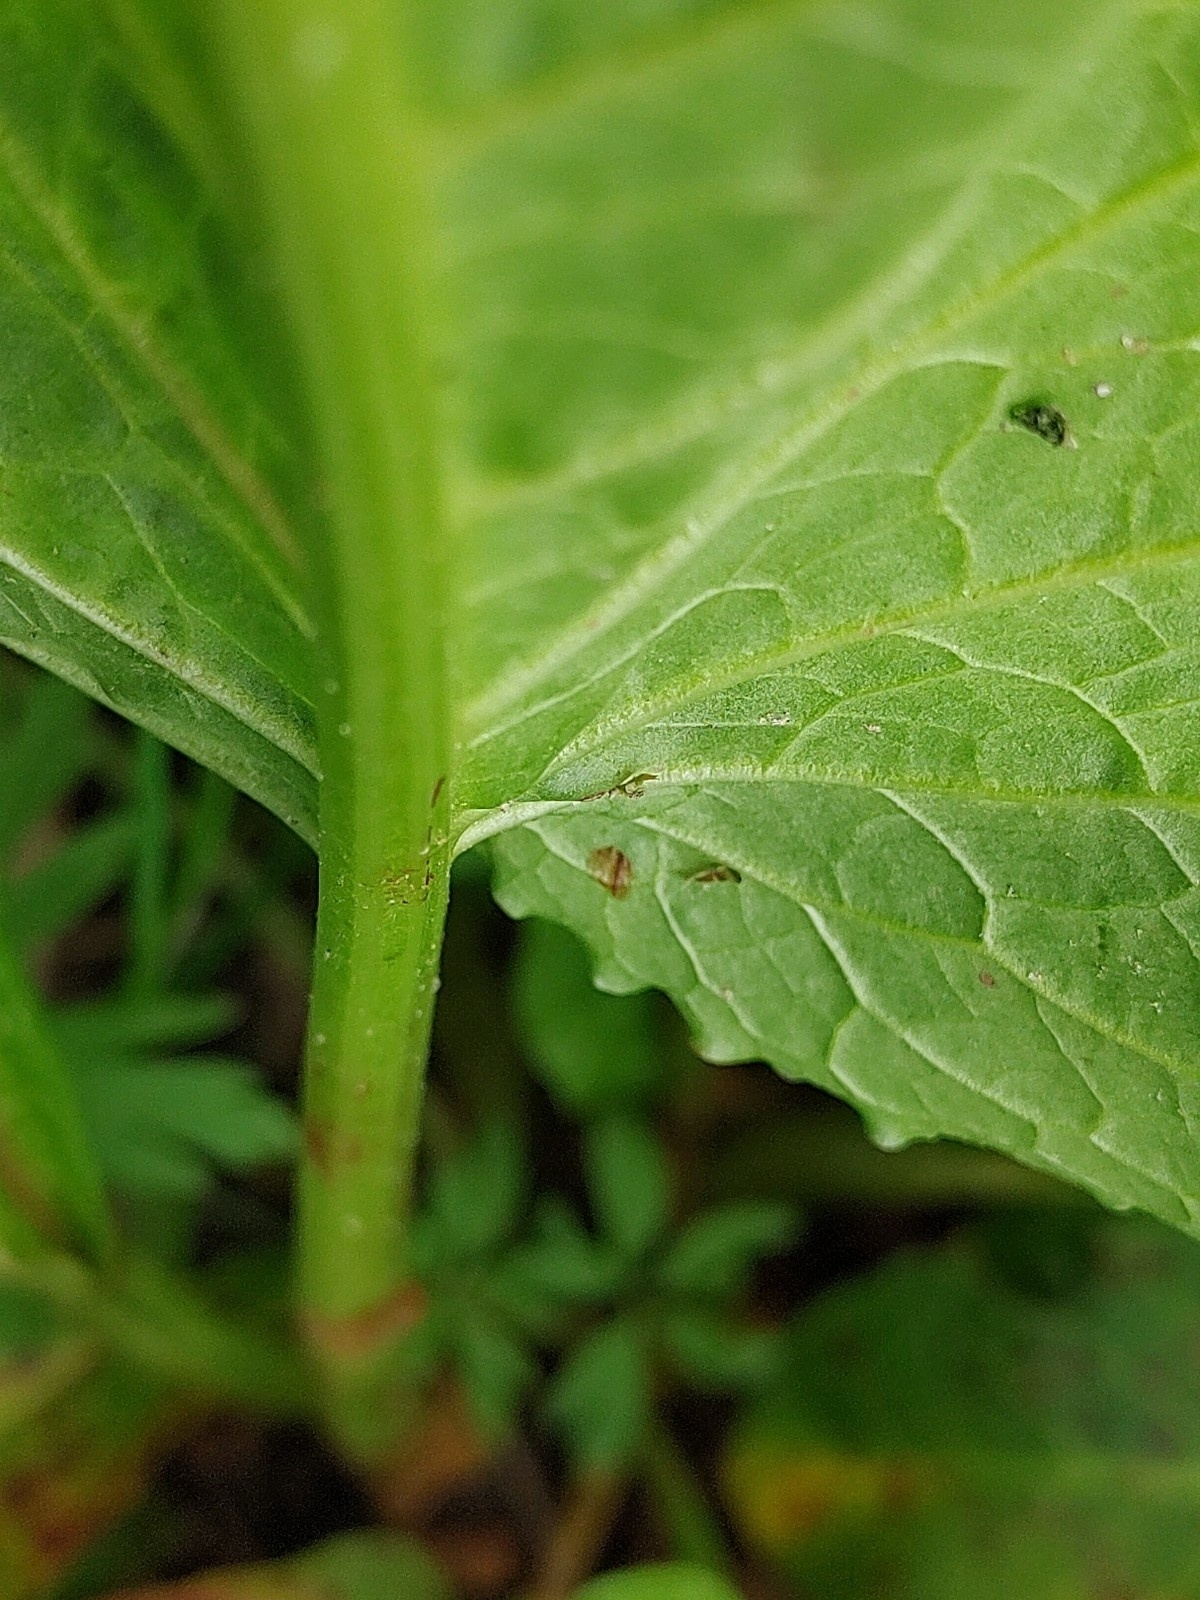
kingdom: Plantae
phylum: Tracheophyta
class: Magnoliopsida
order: Caryophyllales
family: Polygonaceae
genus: Rumex
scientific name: Rumex obtusifolius
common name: Bitter dock
